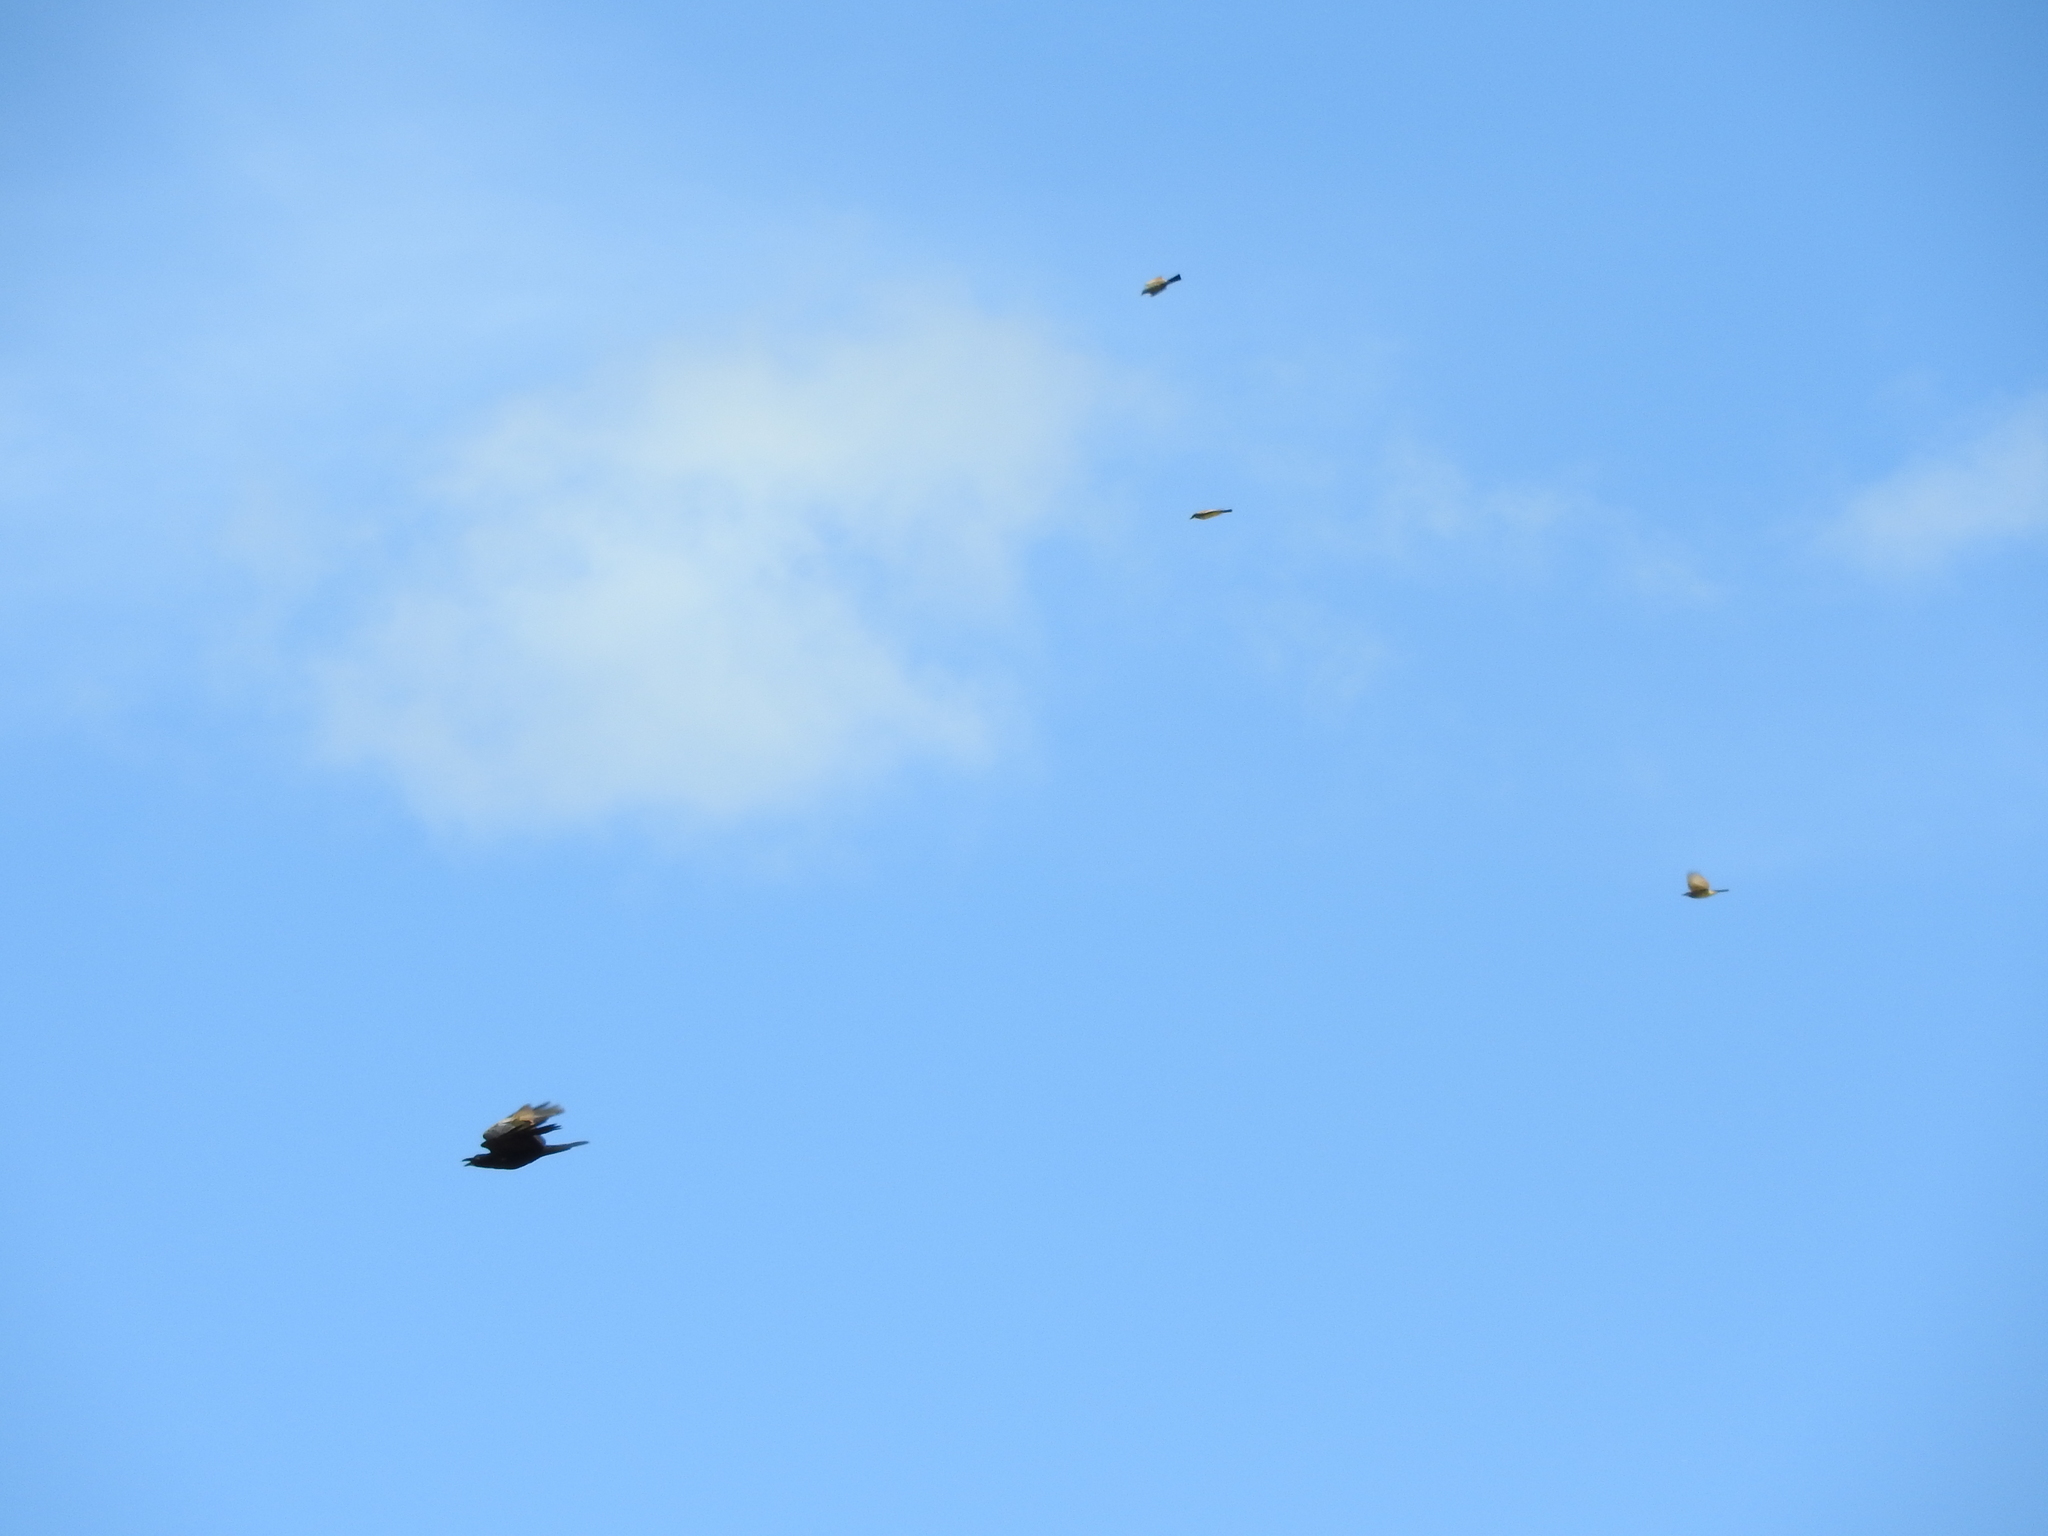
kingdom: Animalia
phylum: Chordata
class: Aves
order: Passeriformes
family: Corvidae
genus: Corvus
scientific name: Corvus corax
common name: Common raven
